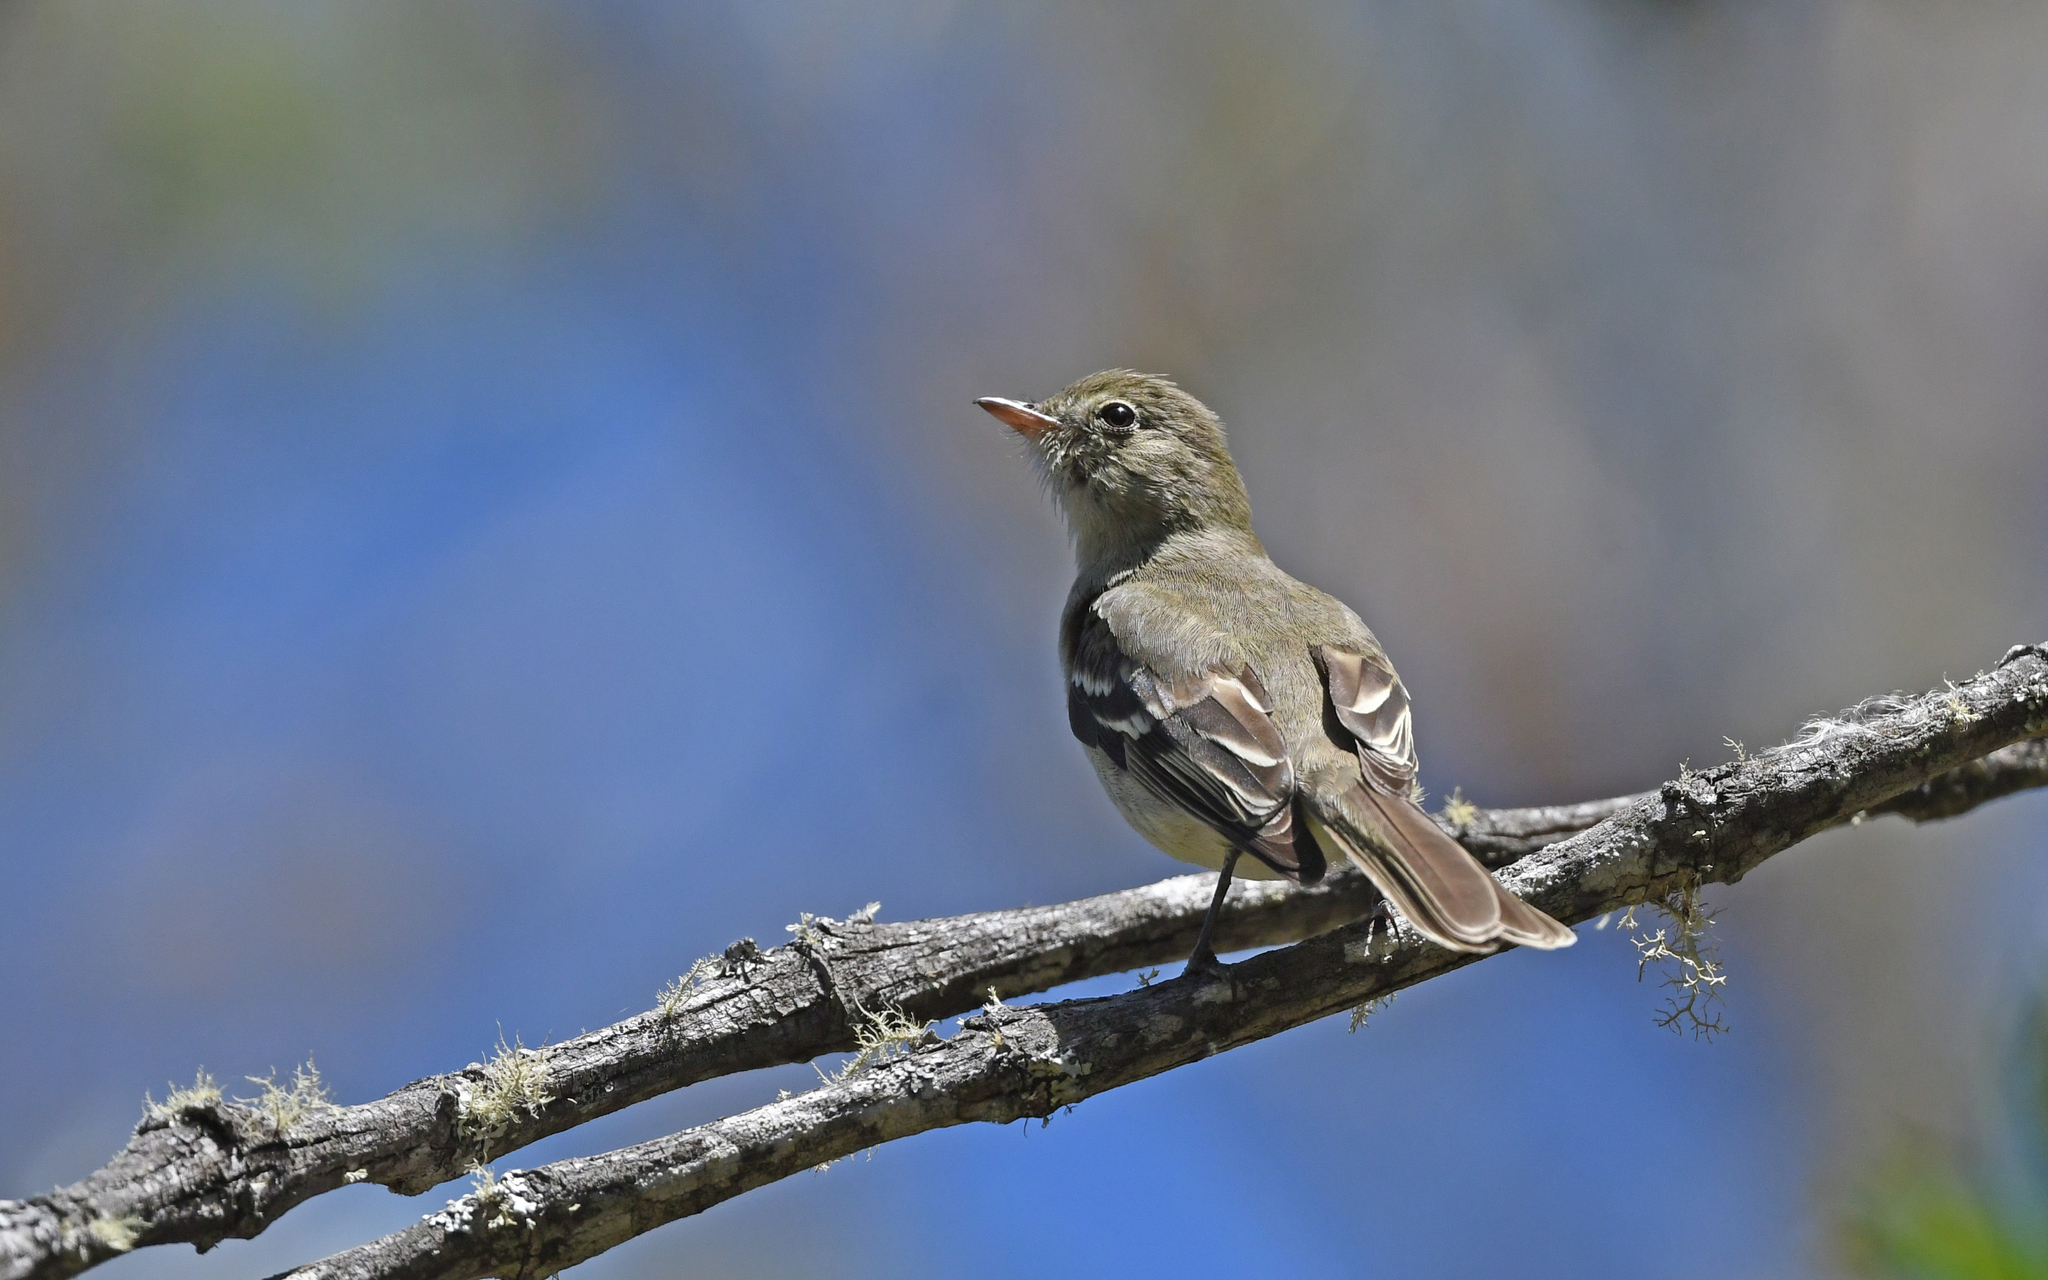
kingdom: Animalia
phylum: Chordata
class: Aves
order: Passeriformes
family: Tyrannidae
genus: Elaenia
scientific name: Elaenia frantzii
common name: Mountain elaenia
